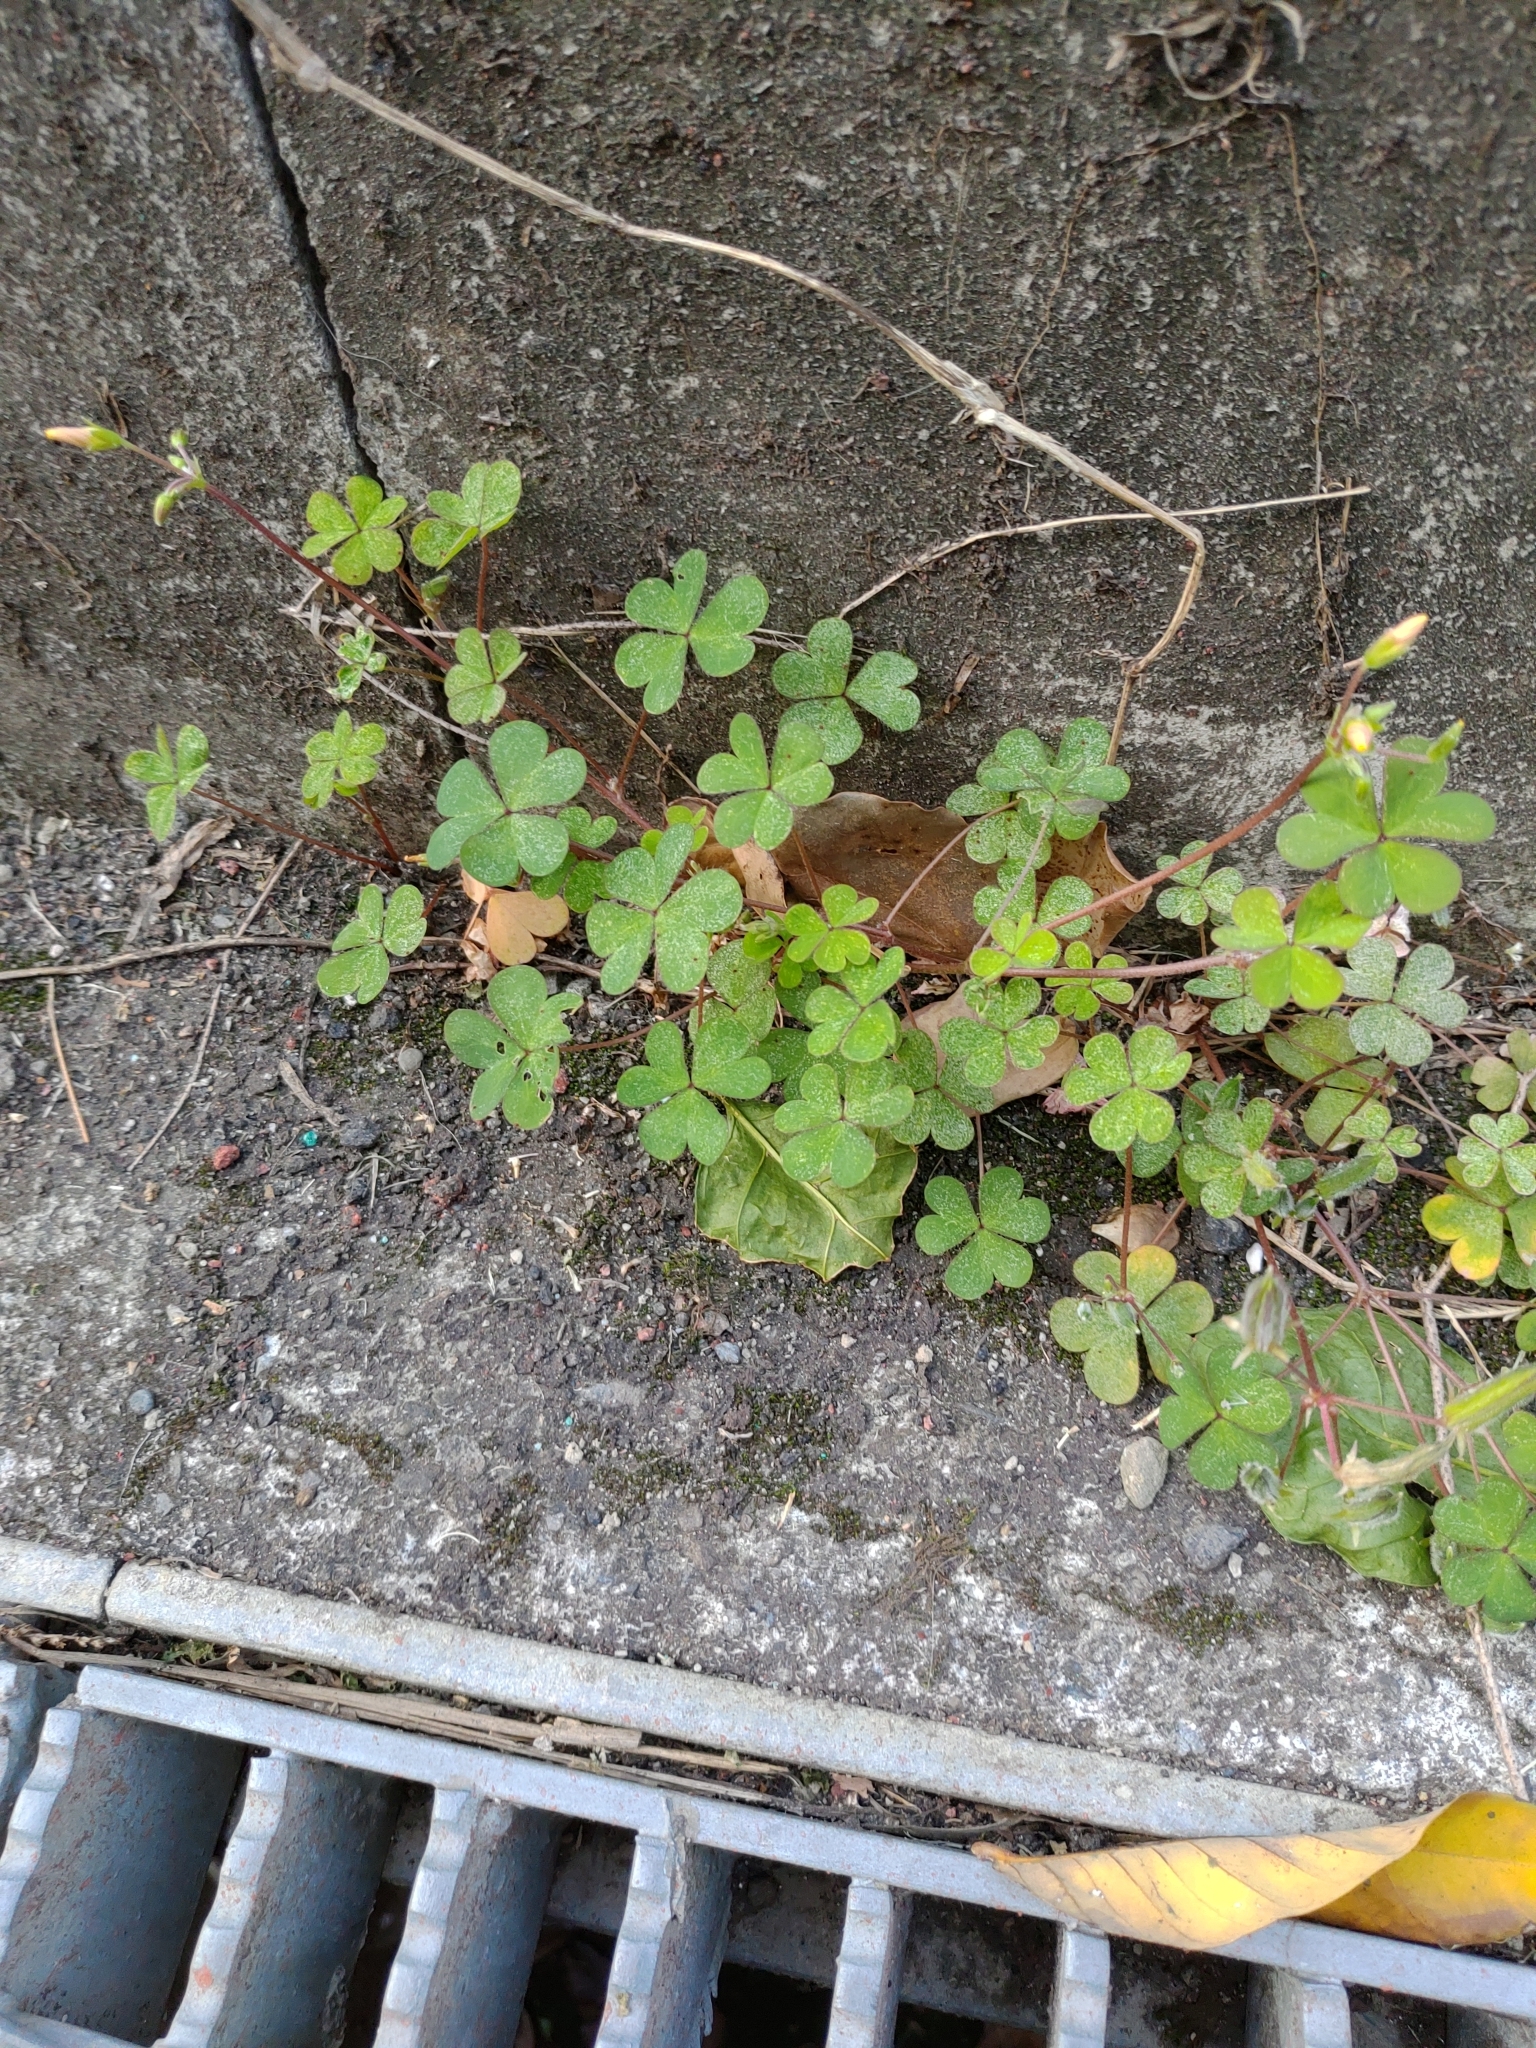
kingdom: Plantae
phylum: Tracheophyta
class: Magnoliopsida
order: Oxalidales
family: Oxalidaceae
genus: Oxalis
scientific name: Oxalis corniculata
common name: Procumbent yellow-sorrel
